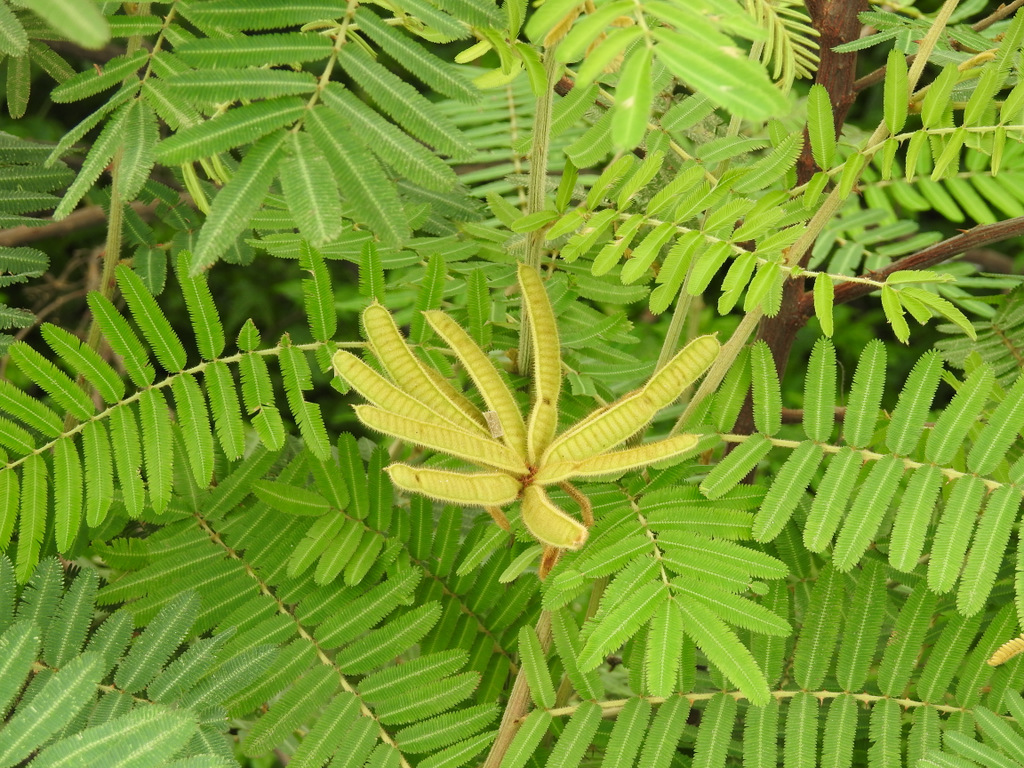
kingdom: Plantae
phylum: Tracheophyta
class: Magnoliopsida
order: Fabales
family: Fabaceae
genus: Mimosa
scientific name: Mimosa pigra
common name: Black mimosa
